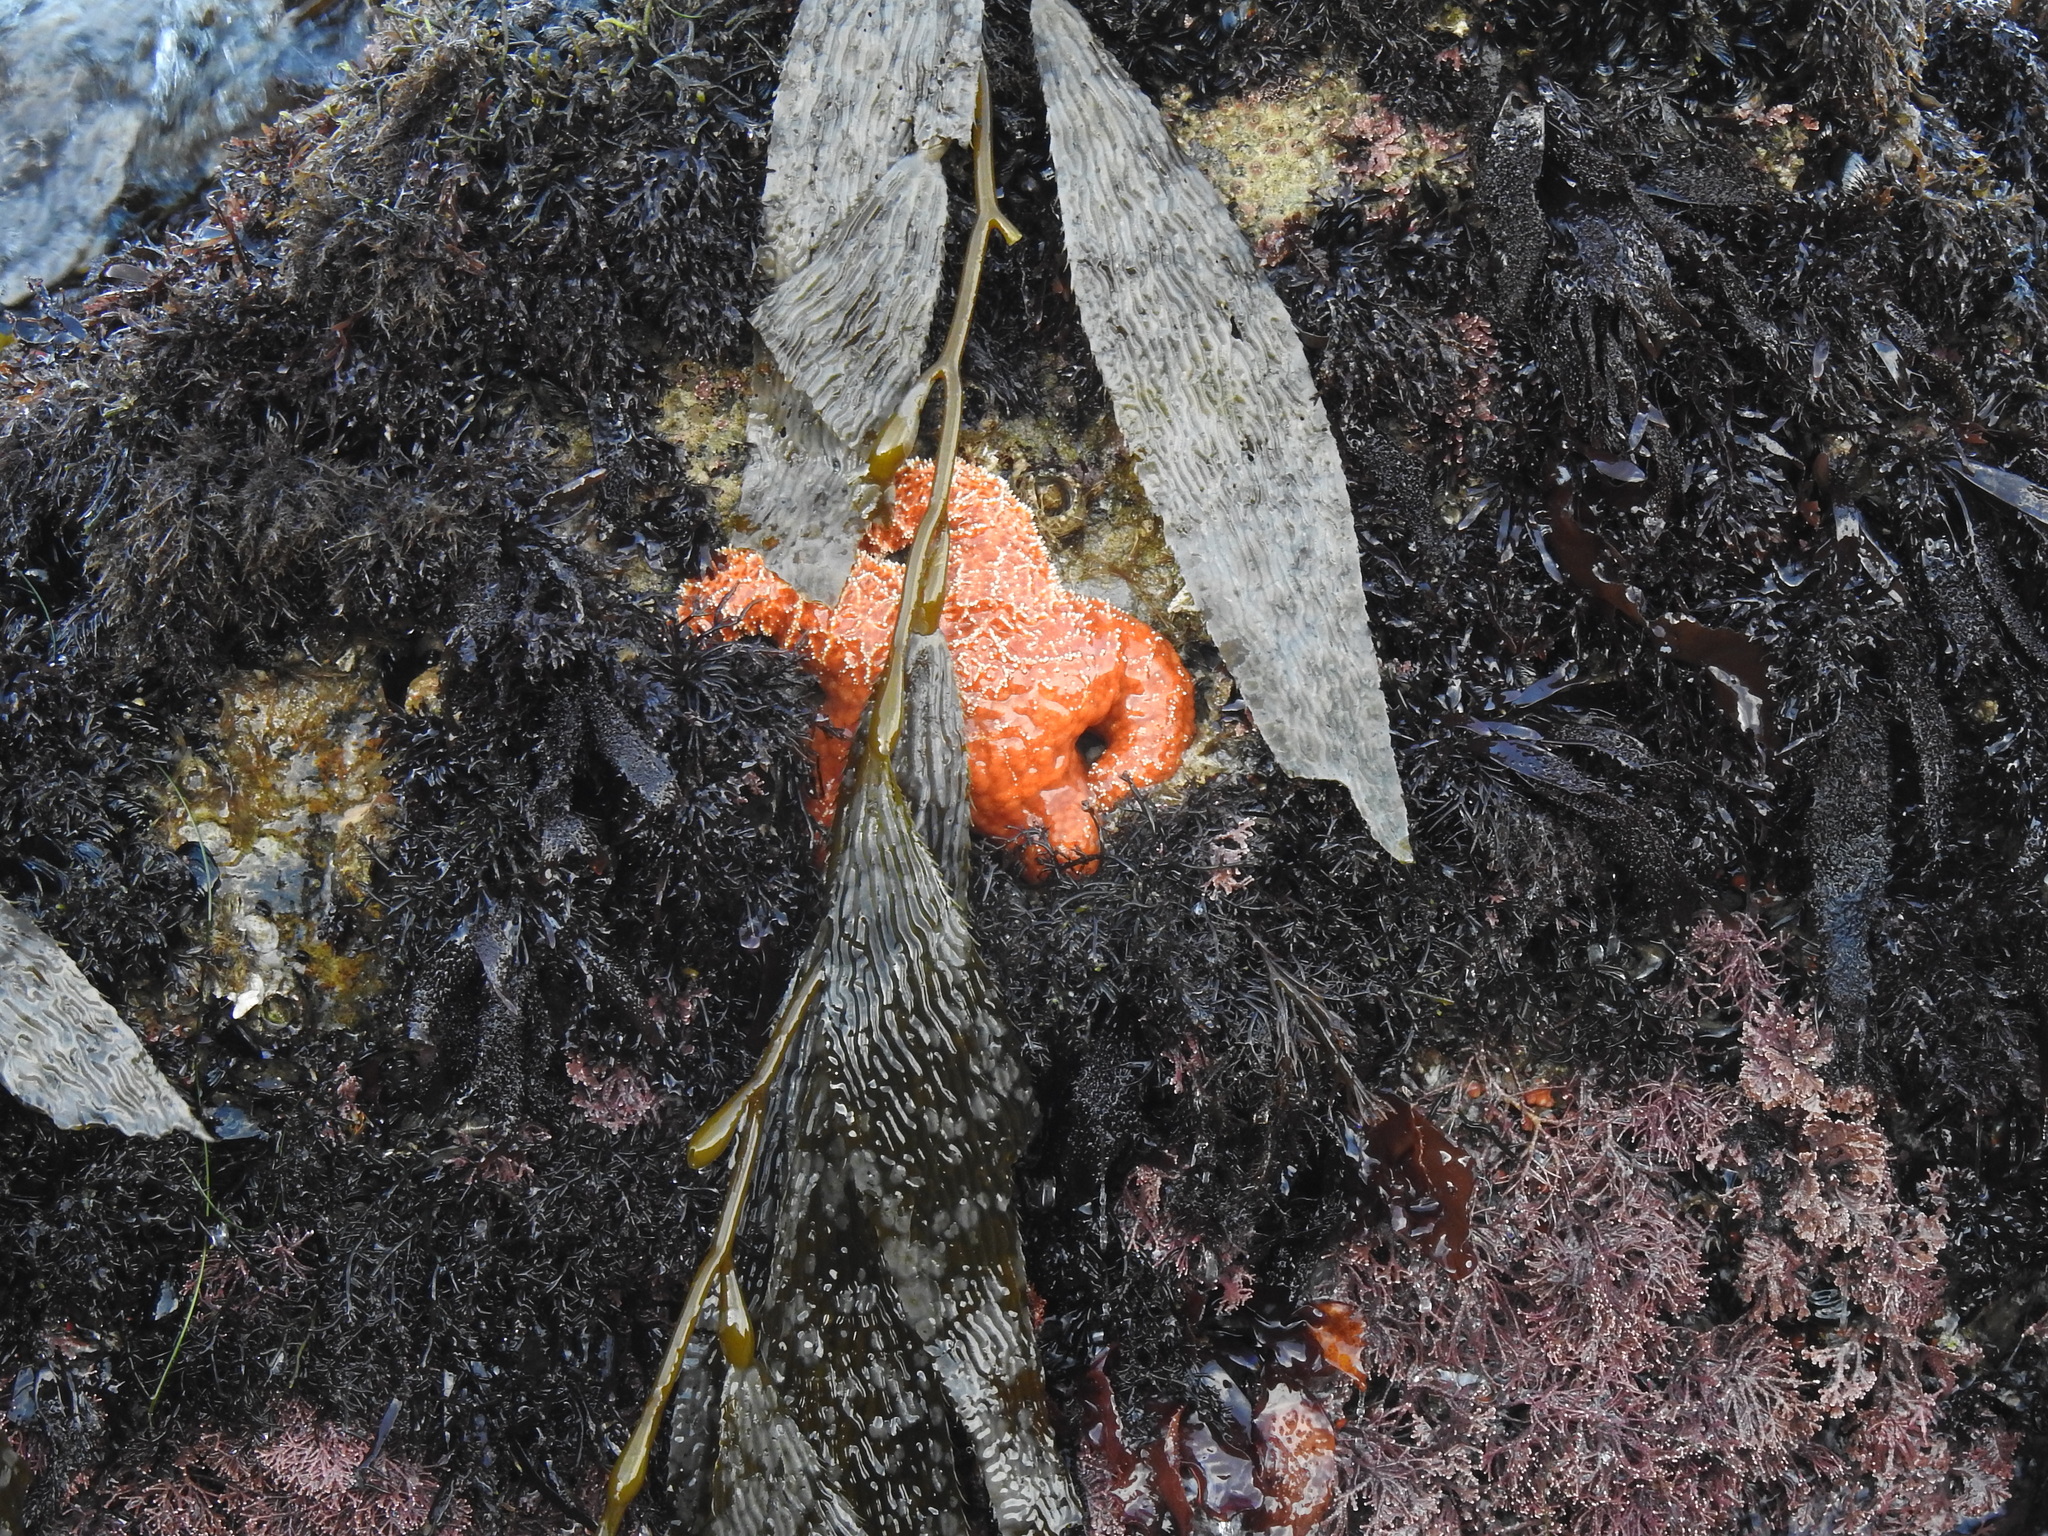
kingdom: Animalia
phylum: Echinodermata
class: Asteroidea
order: Forcipulatida
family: Asteriidae
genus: Pisaster
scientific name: Pisaster ochraceus
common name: Ochre stars
